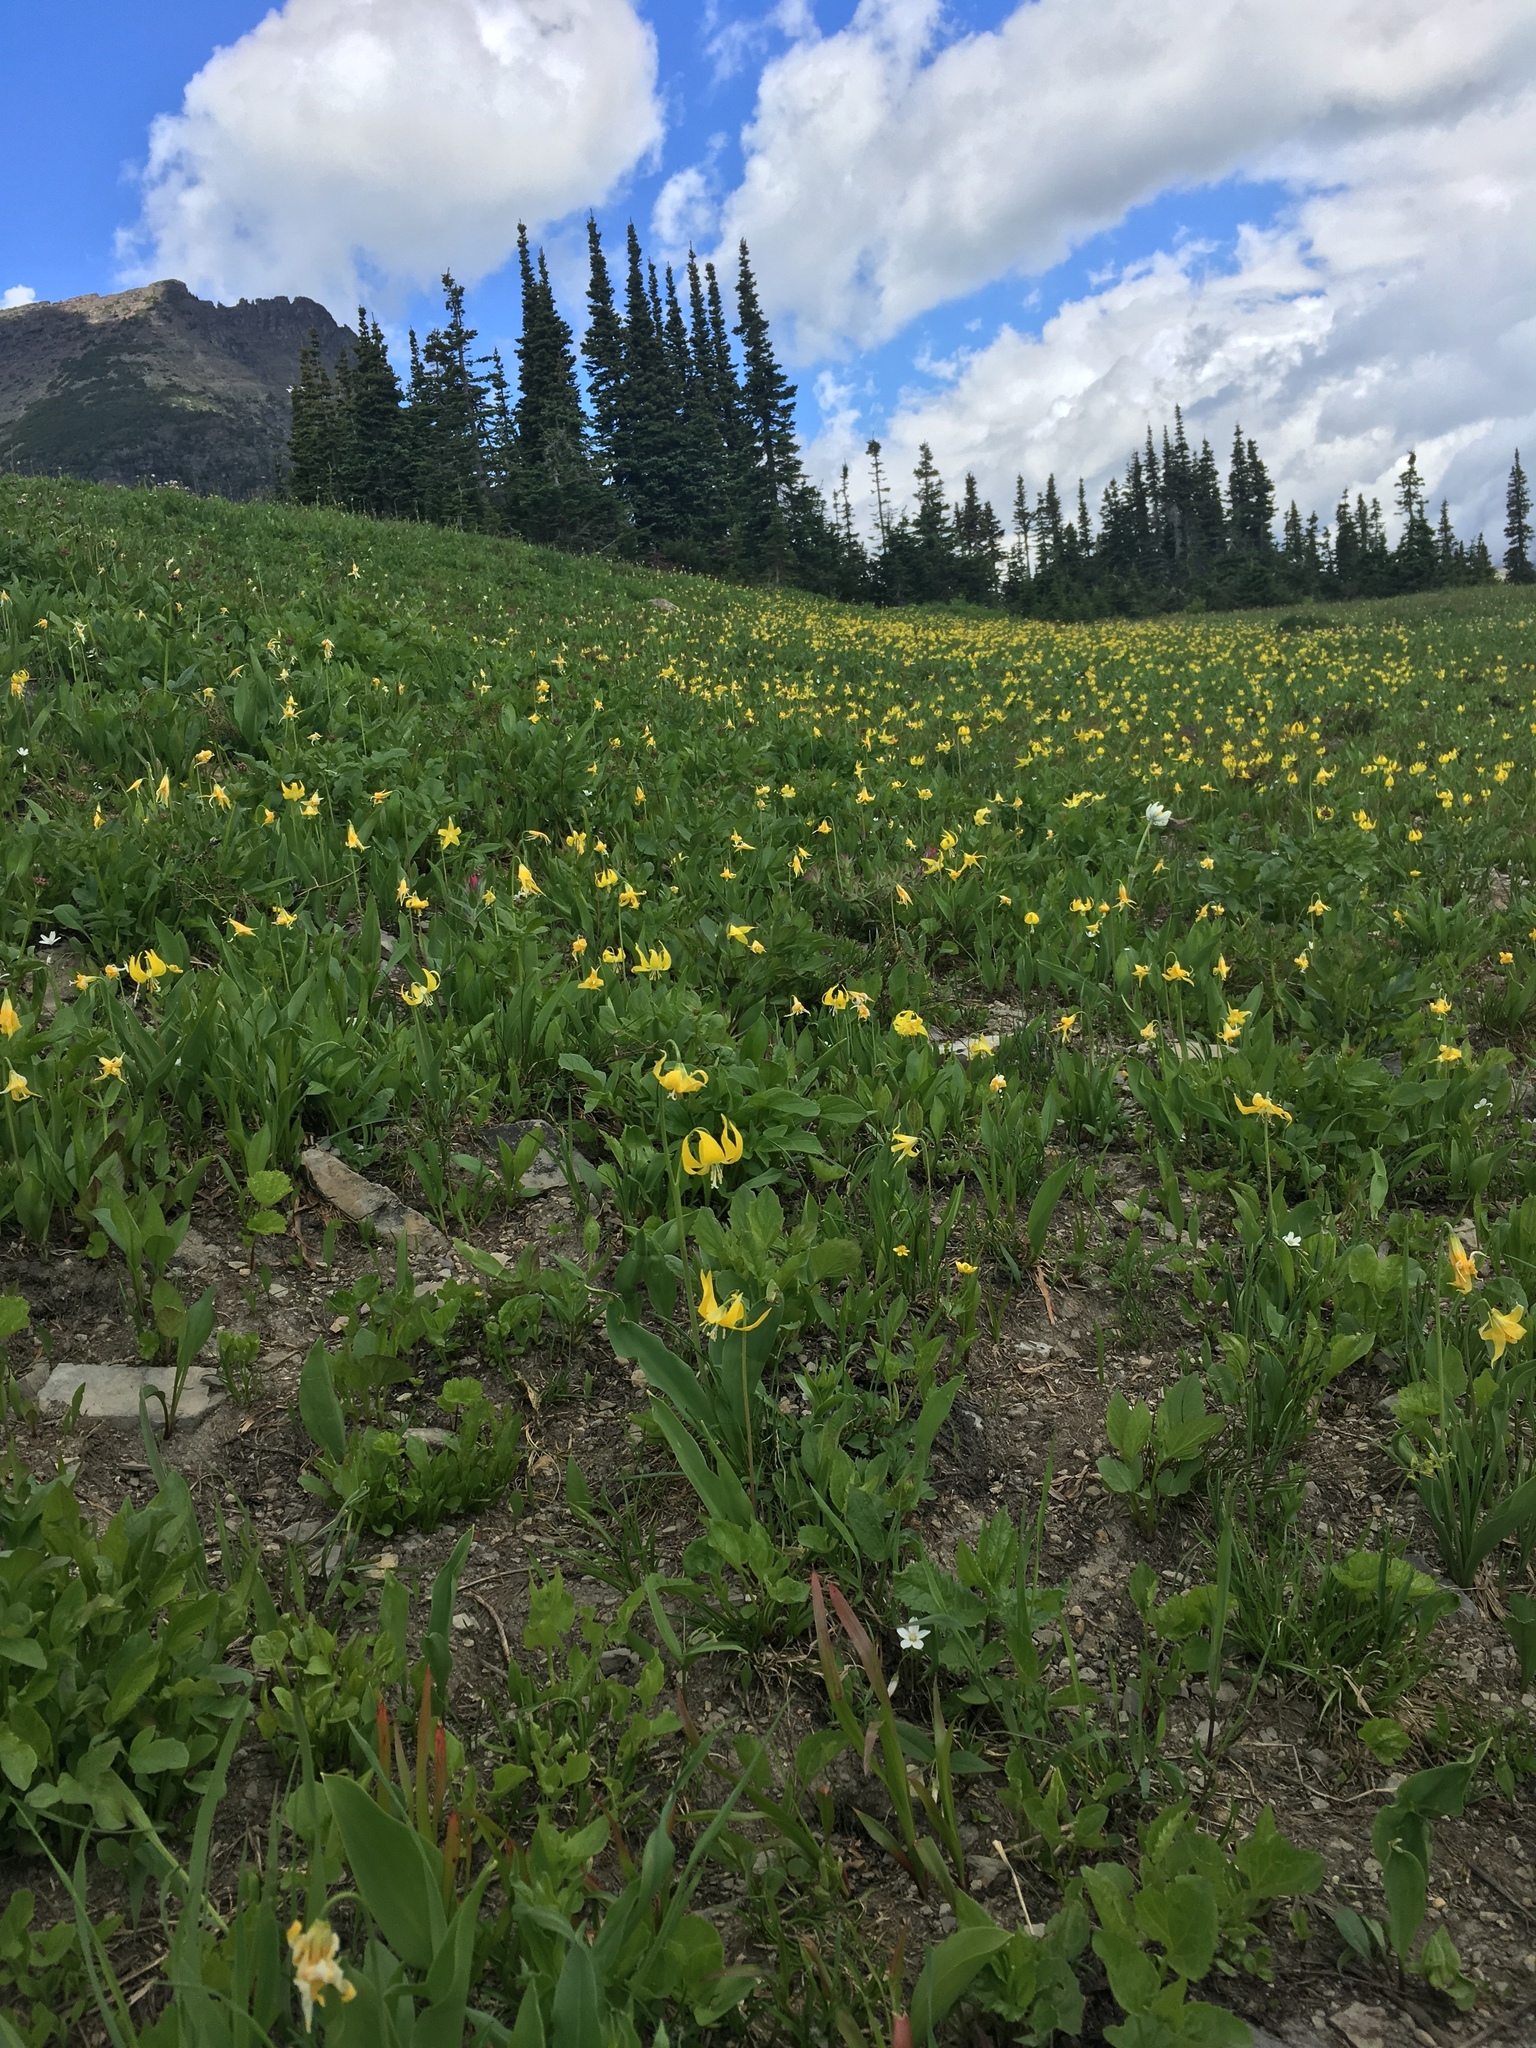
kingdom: Plantae
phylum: Tracheophyta
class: Liliopsida
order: Liliales
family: Liliaceae
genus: Erythronium
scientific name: Erythronium grandiflorum
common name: Avalanche-lily
